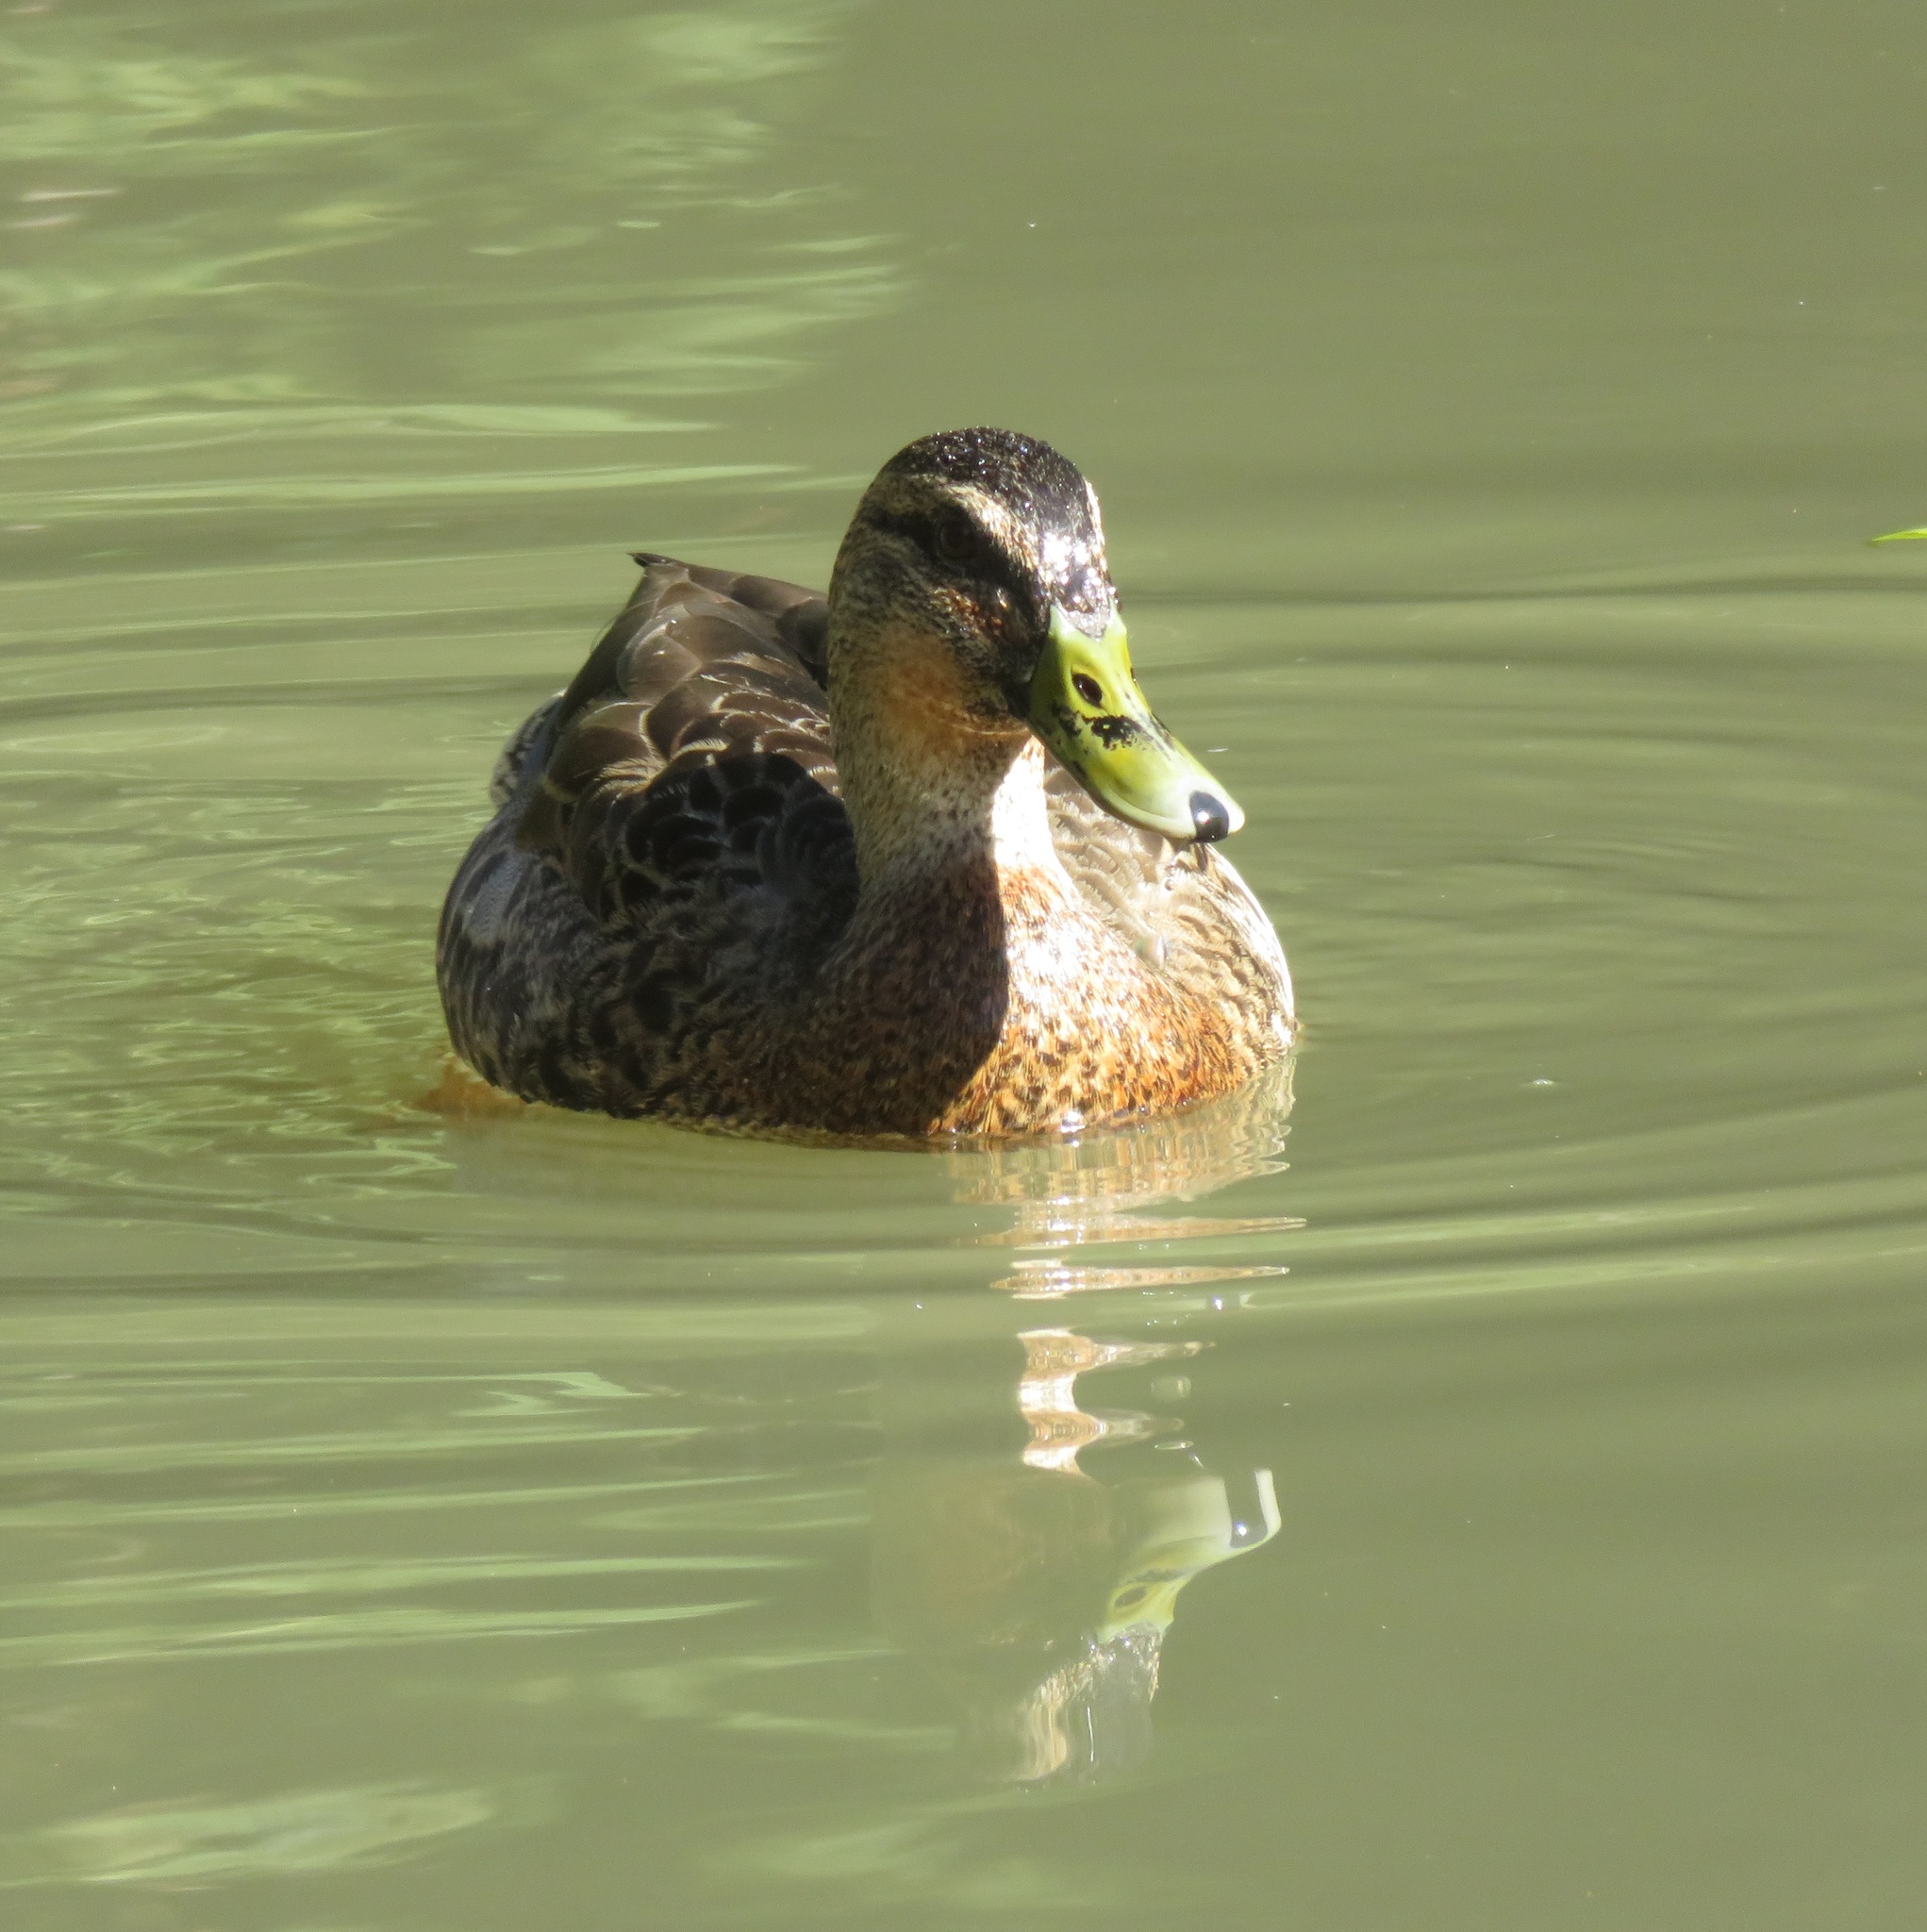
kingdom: Animalia
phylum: Chordata
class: Aves
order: Anseriformes
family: Anatidae
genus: Anas
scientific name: Anas platyrhynchos
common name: Mallard
